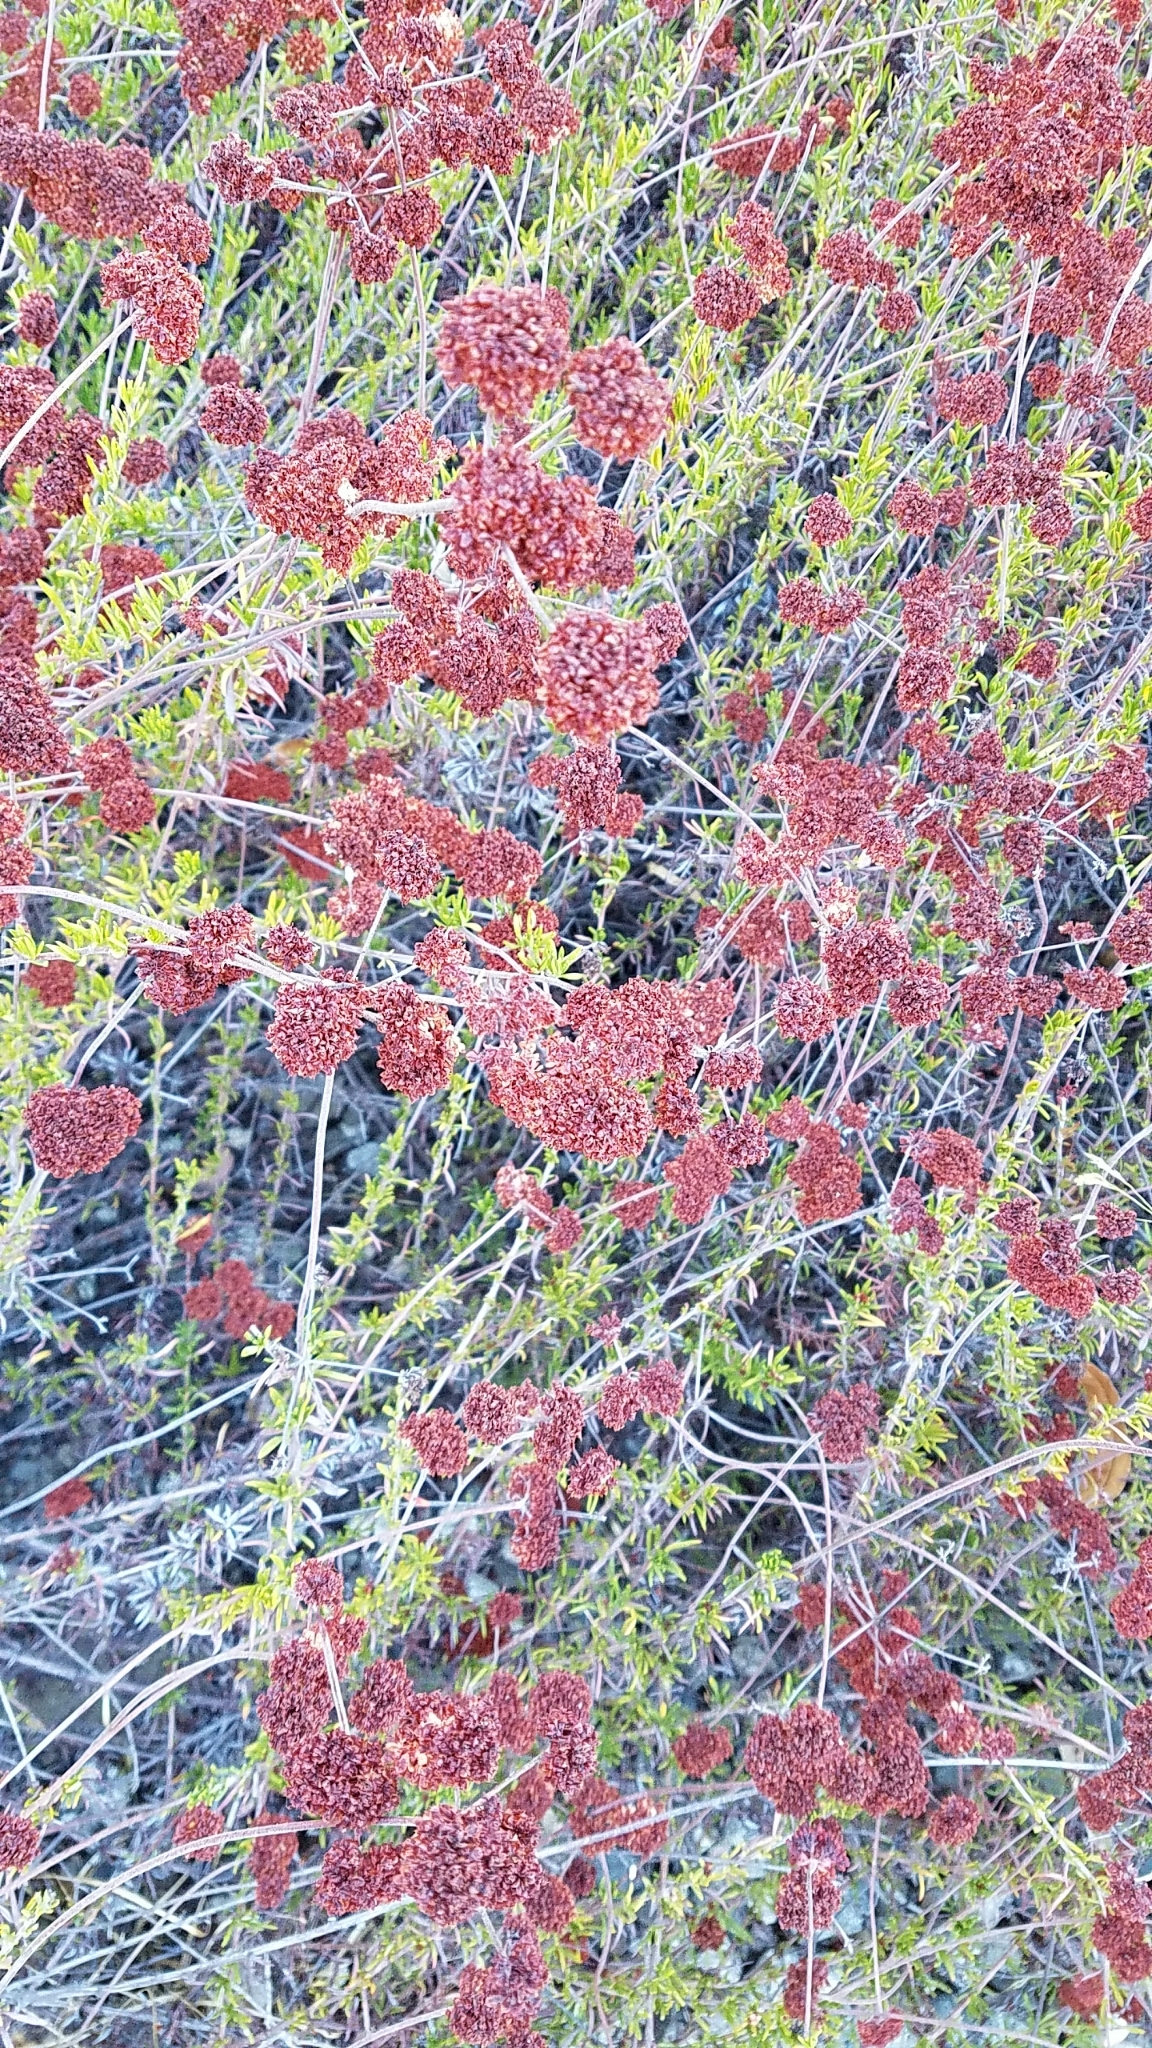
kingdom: Plantae
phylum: Tracheophyta
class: Magnoliopsida
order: Caryophyllales
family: Polygonaceae
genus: Eriogonum
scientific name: Eriogonum fasciculatum
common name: California wild buckwheat
